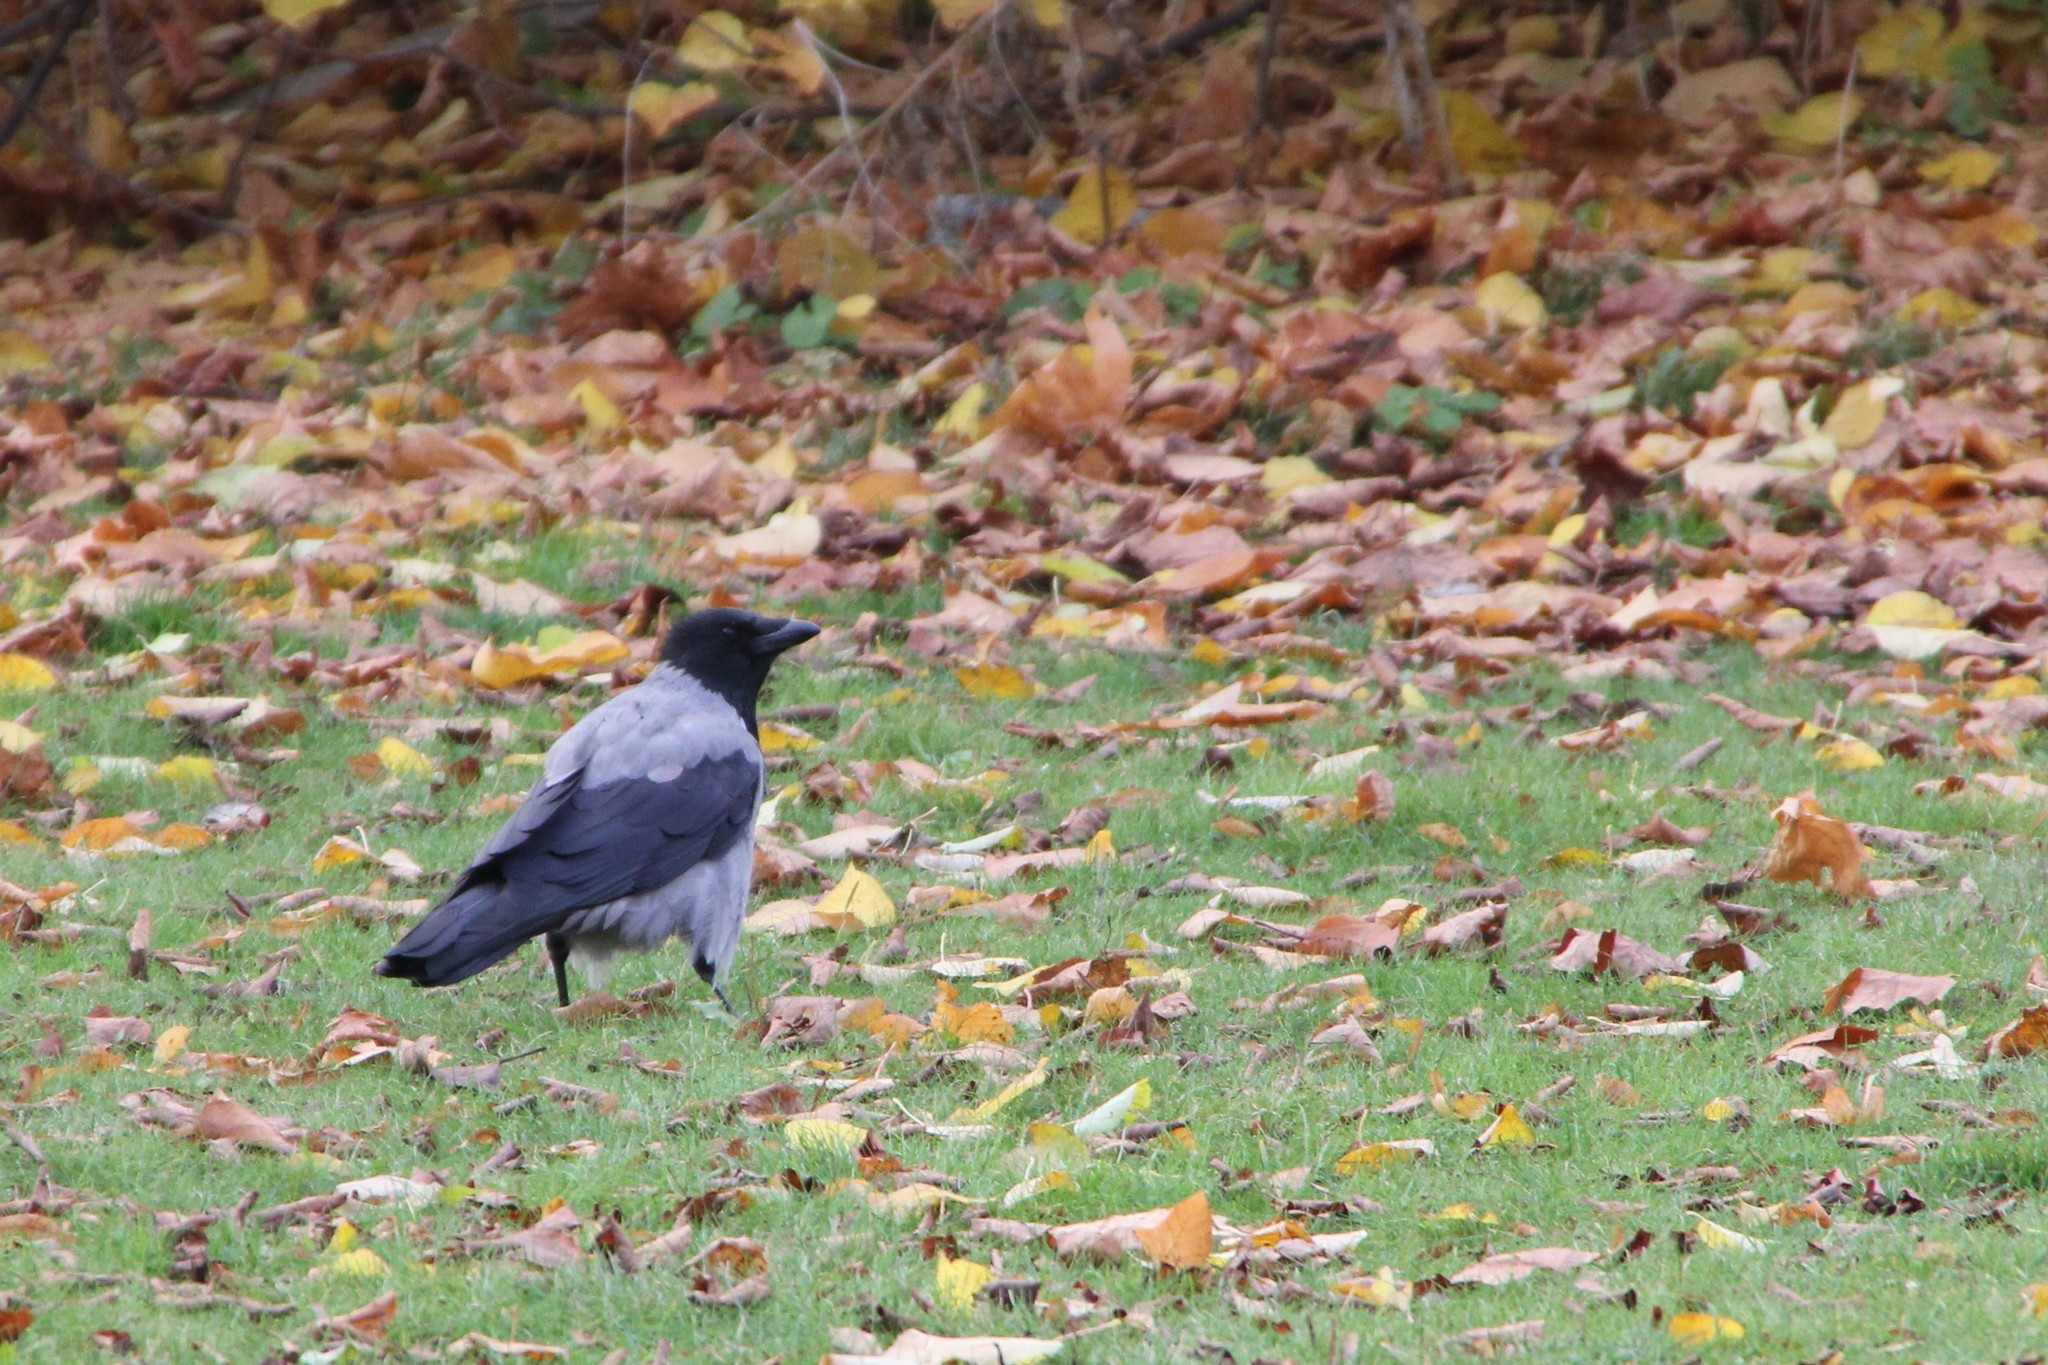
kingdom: Animalia
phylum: Chordata
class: Aves
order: Passeriformes
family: Corvidae
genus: Corvus
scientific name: Corvus cornix
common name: Hooded crow
